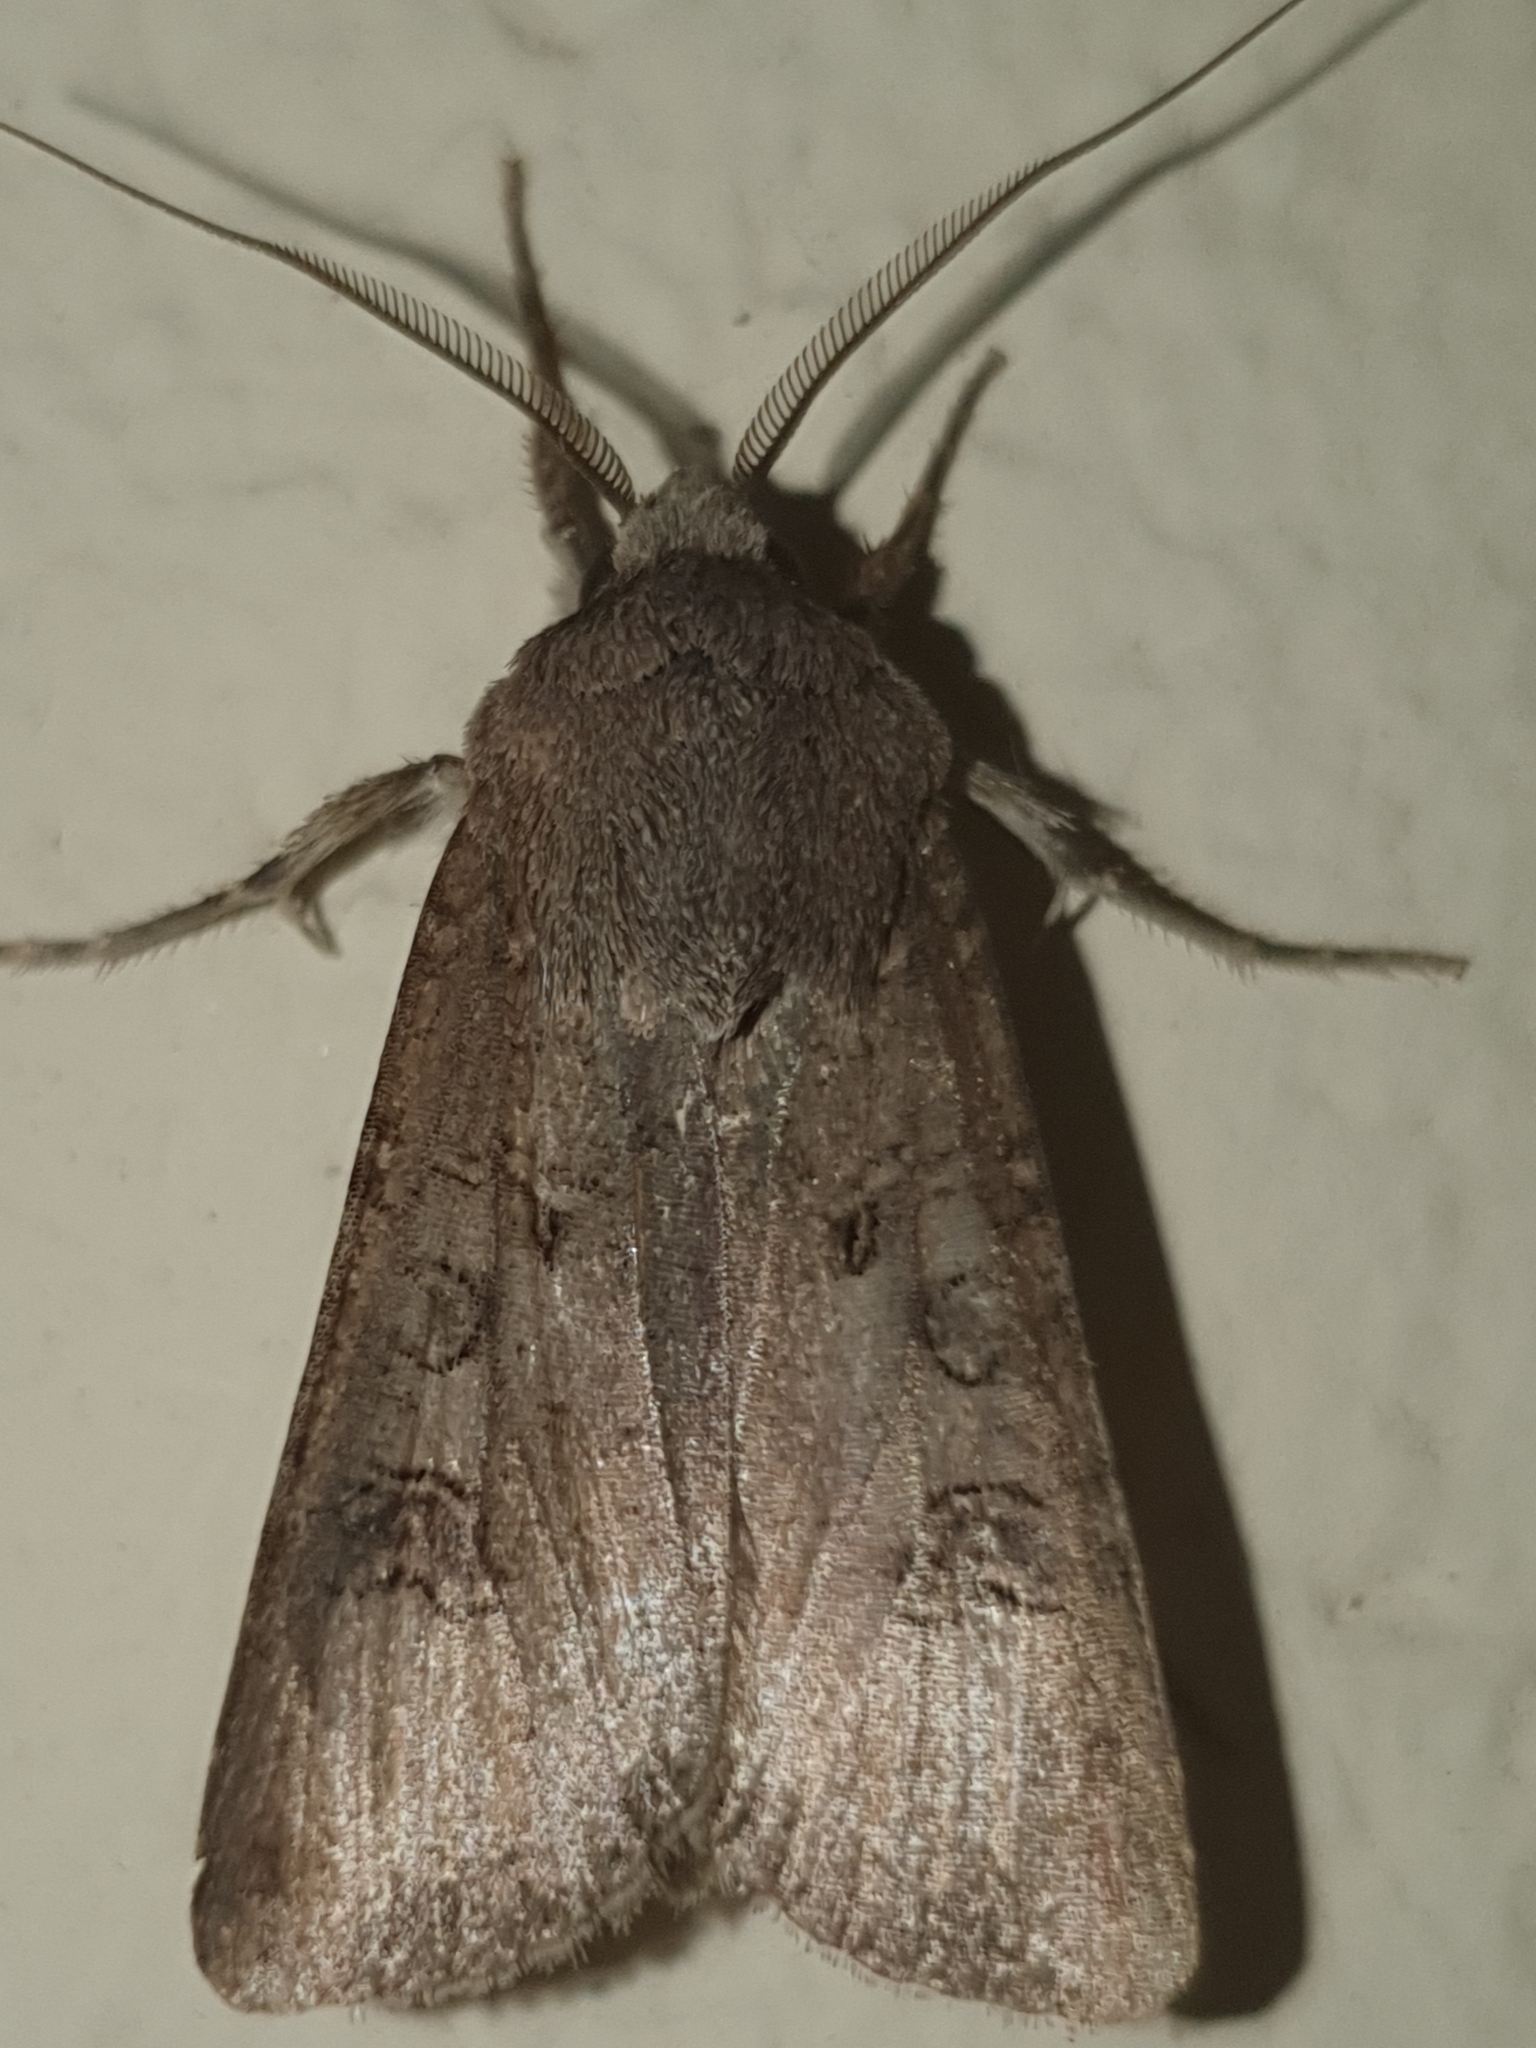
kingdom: Animalia
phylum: Arthropoda
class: Insecta
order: Lepidoptera
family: Noctuidae
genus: Agrotis
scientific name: Agrotis segetum
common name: Turnip moth
